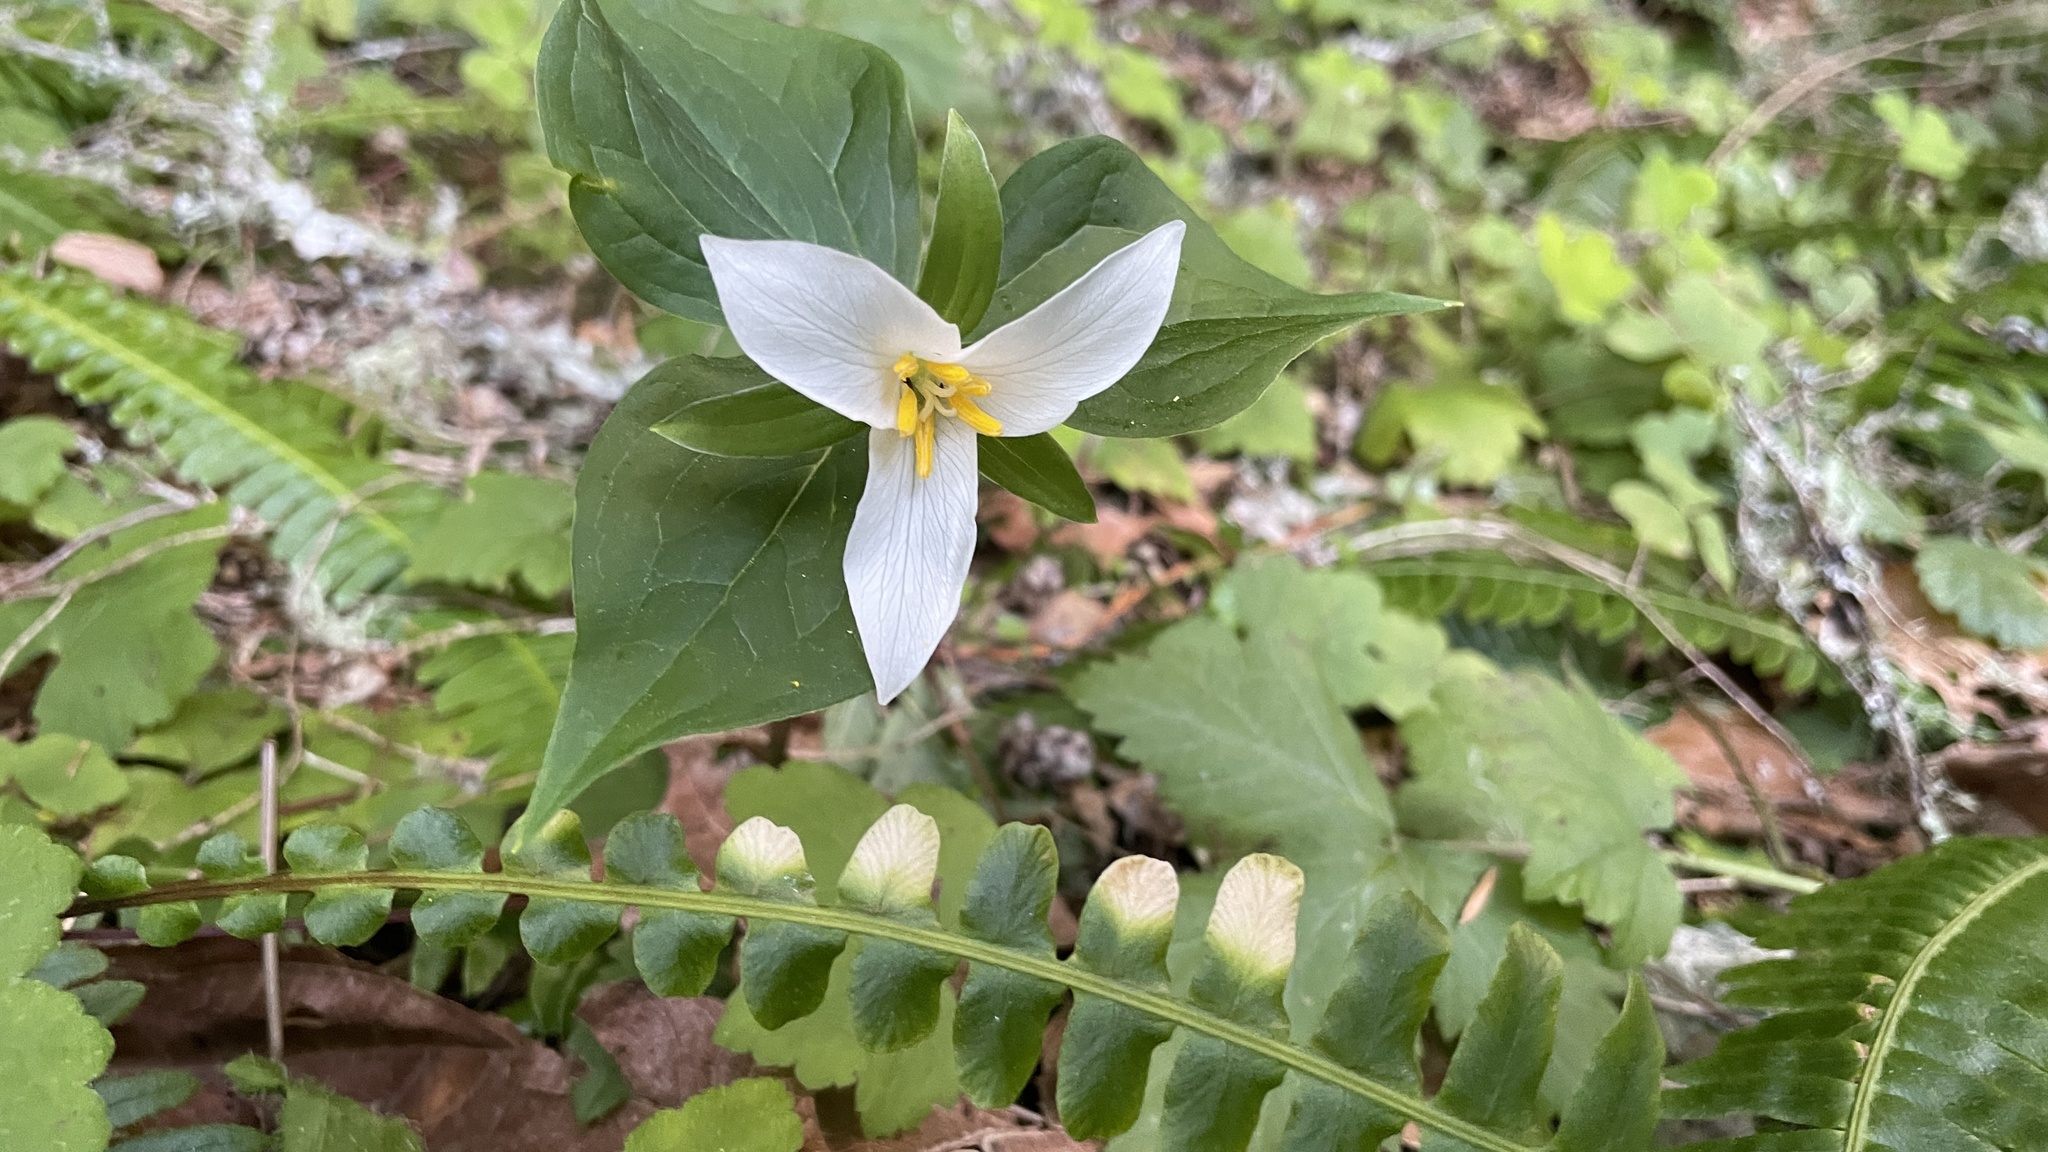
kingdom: Plantae
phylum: Tracheophyta
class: Liliopsida
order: Liliales
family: Melanthiaceae
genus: Trillium
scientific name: Trillium ovatum
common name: Pacific trillium
